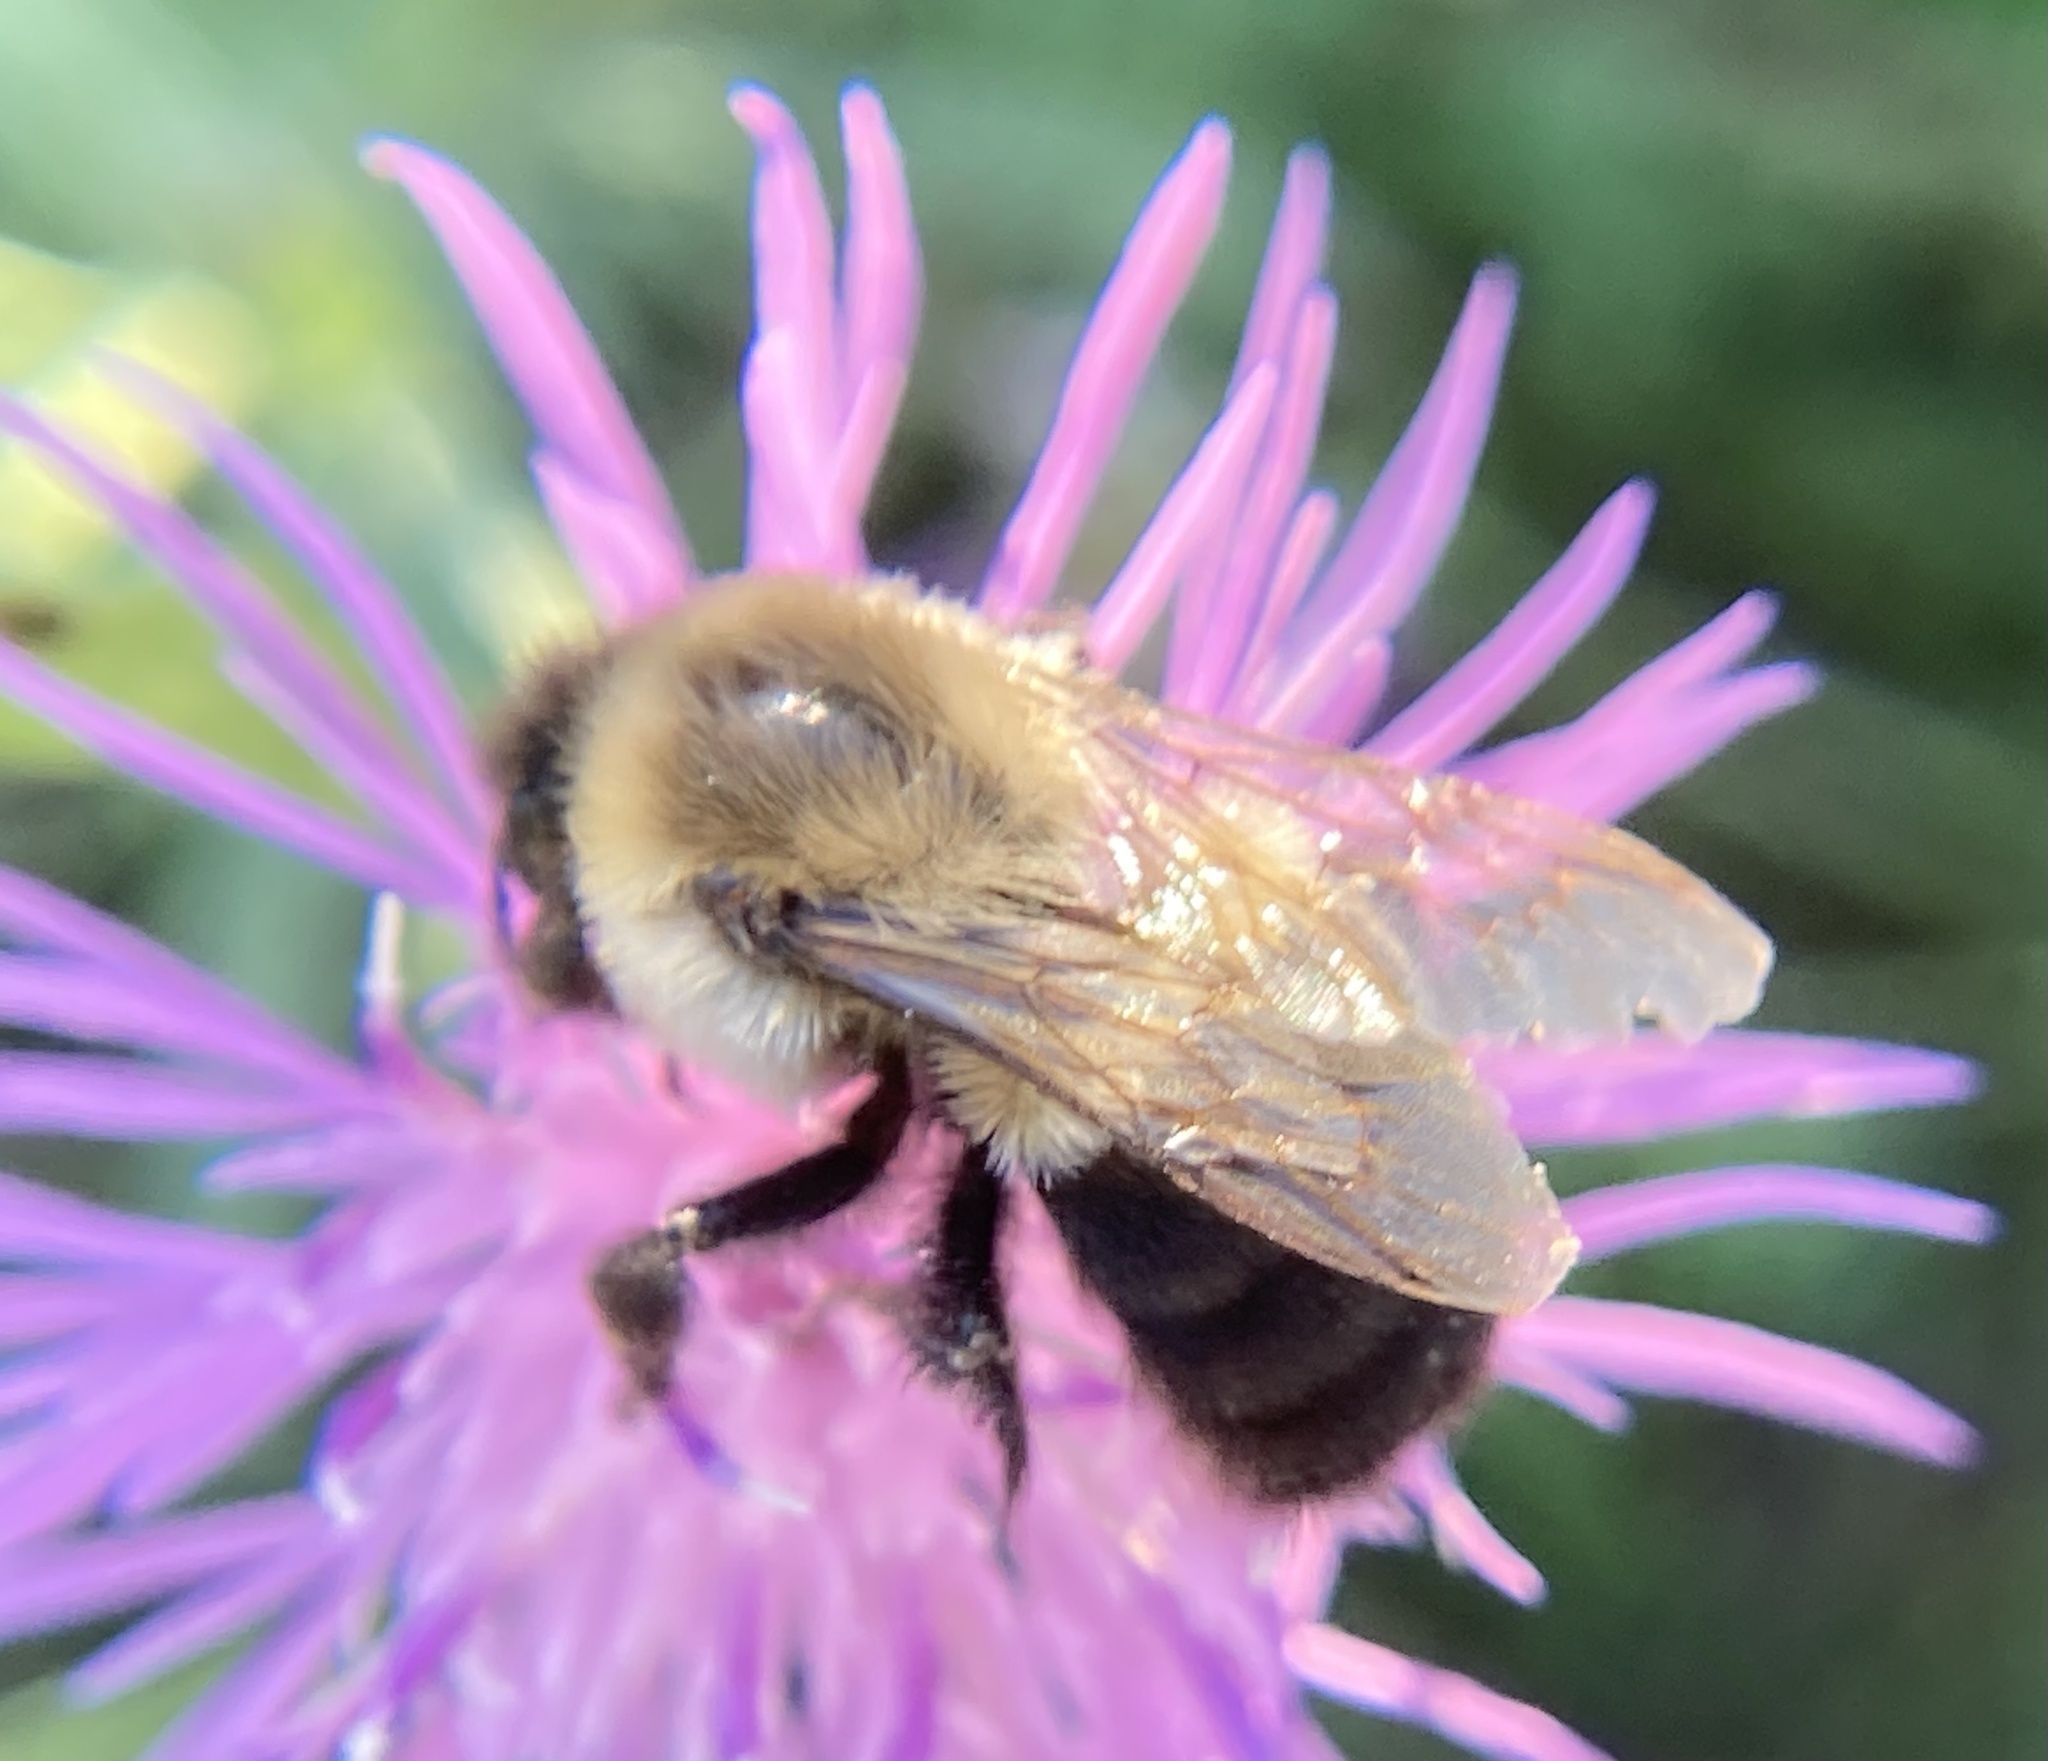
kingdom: Animalia
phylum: Arthropoda
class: Insecta
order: Hymenoptera
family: Apidae
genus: Bombus
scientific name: Bombus impatiens
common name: Common eastern bumble bee
